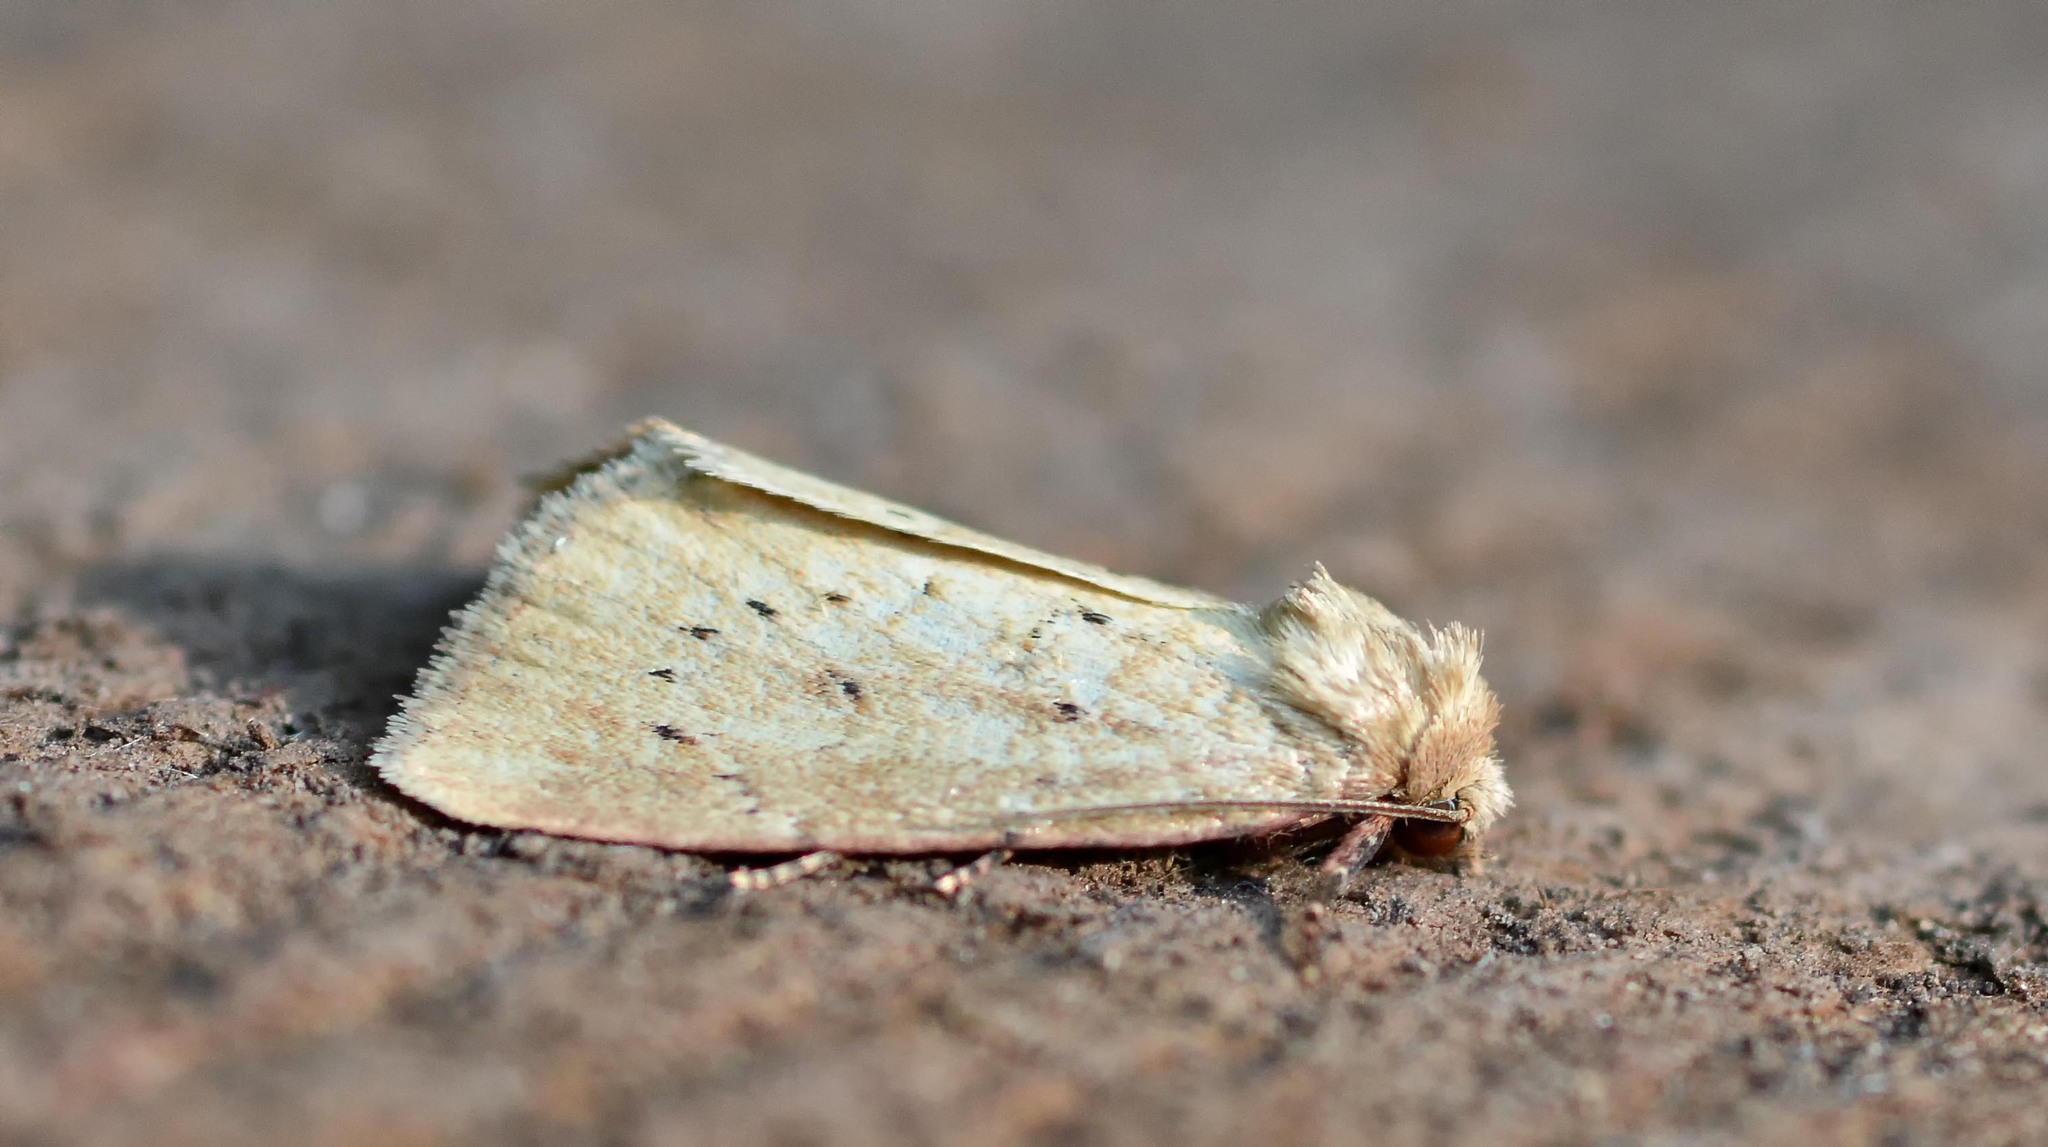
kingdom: Animalia
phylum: Arthropoda
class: Insecta
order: Lepidoptera
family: Noctuidae
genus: Photedes
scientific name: Photedes minima
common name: Small dotted buff
